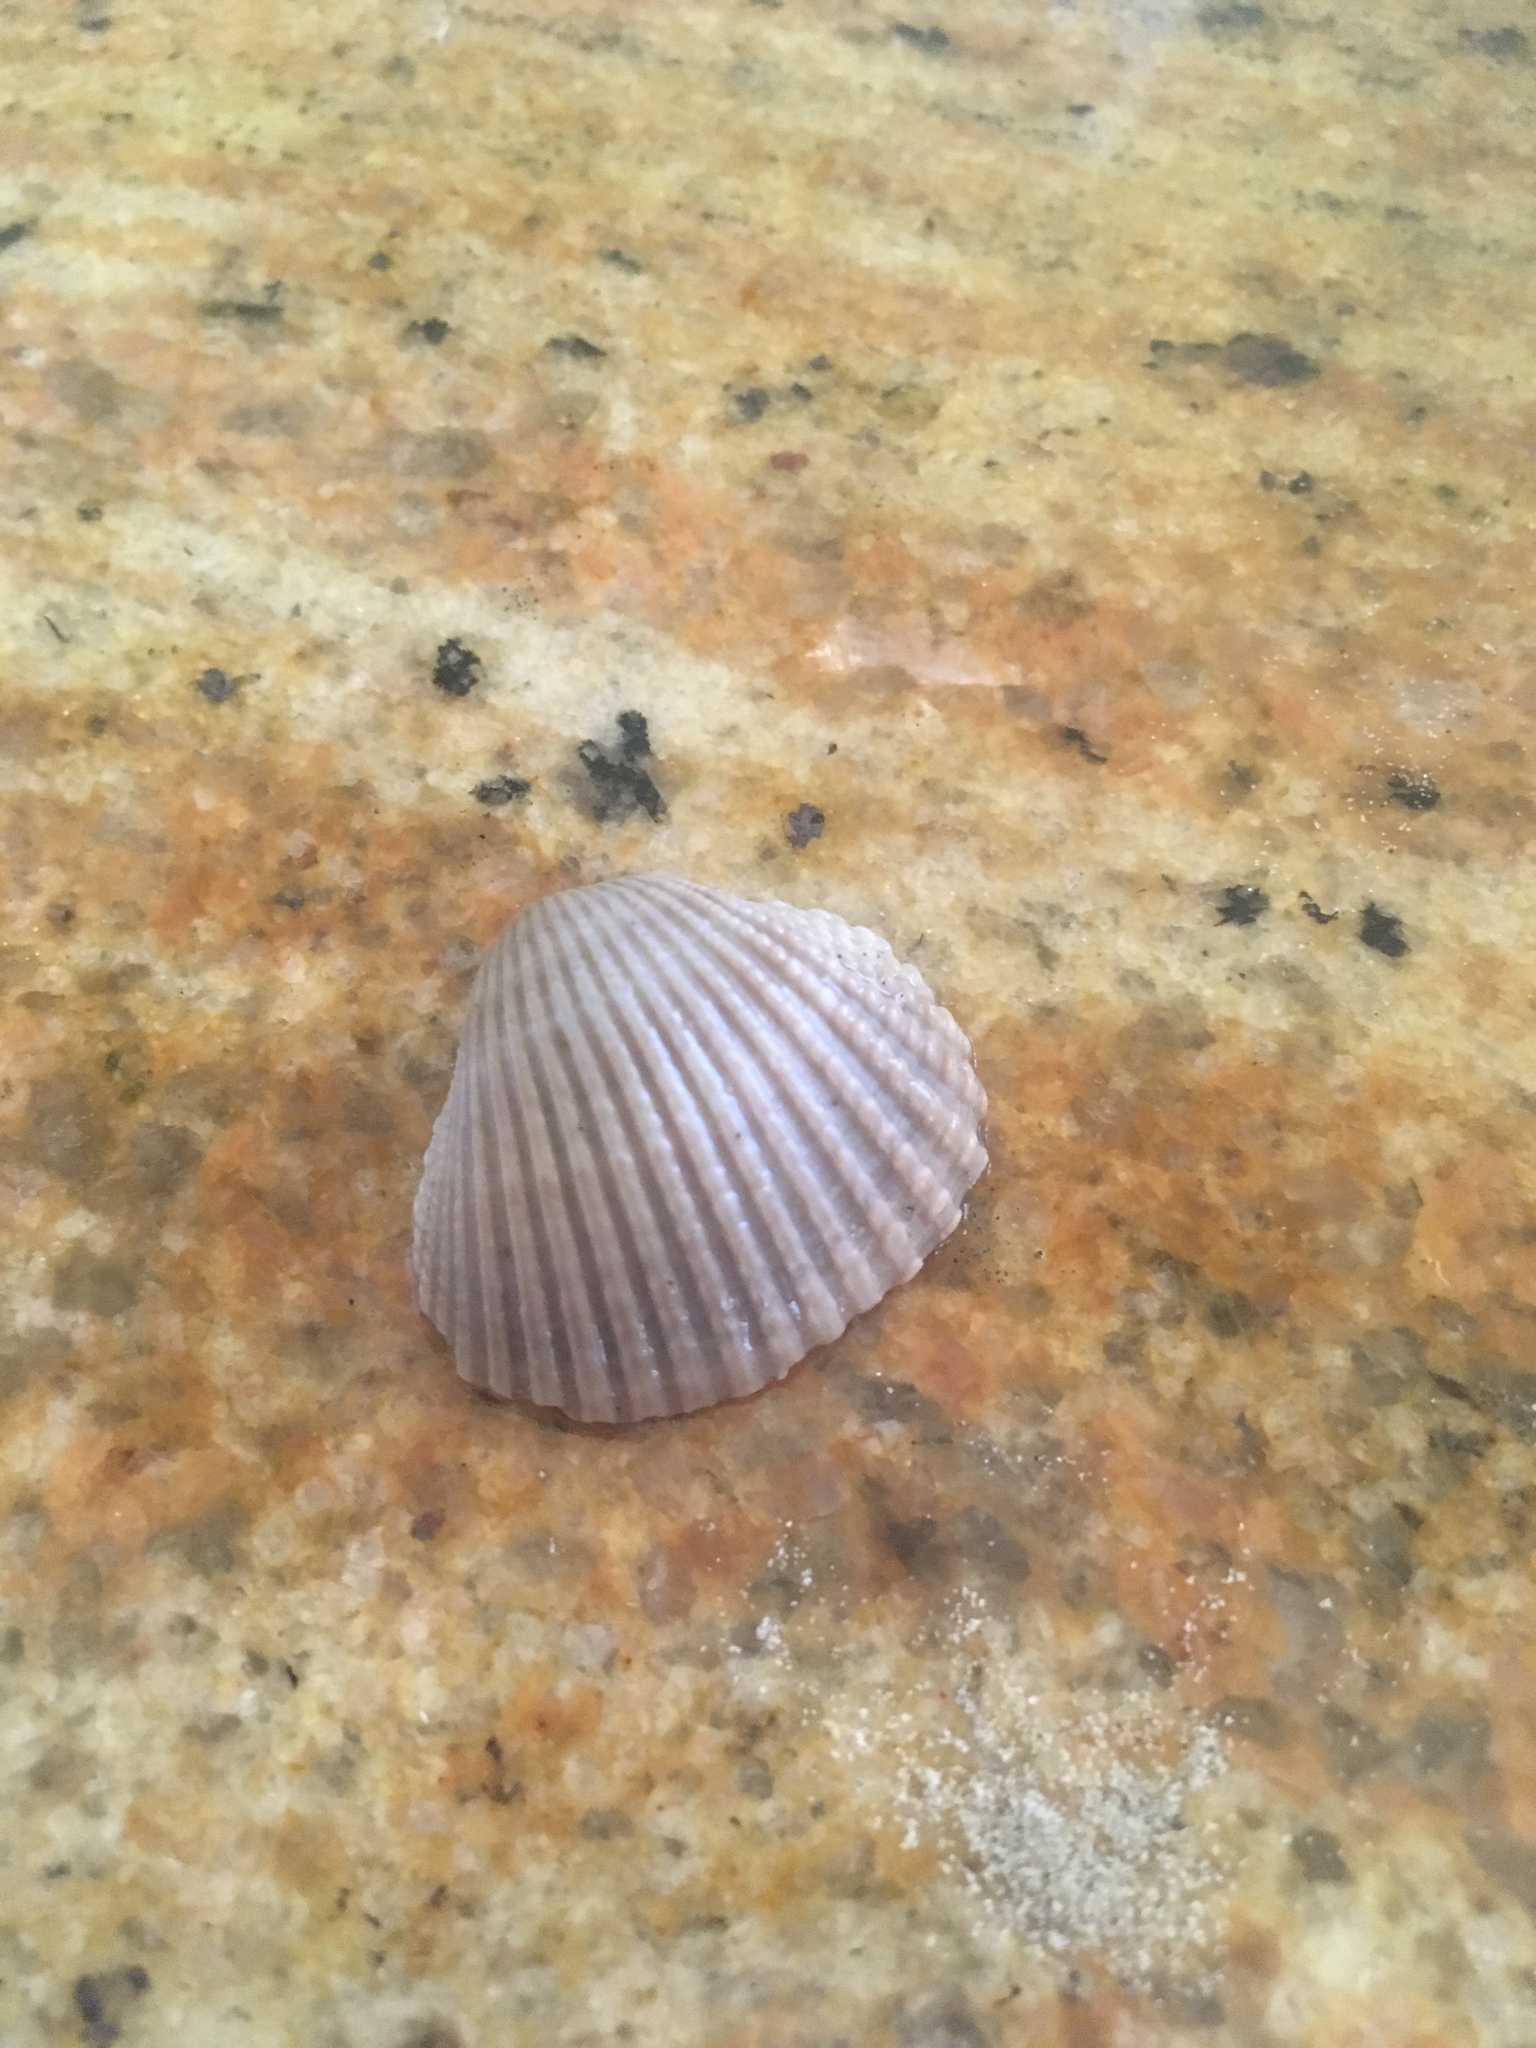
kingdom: Animalia
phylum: Mollusca
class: Bivalvia
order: Arcida
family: Arcidae
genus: Anadara
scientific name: Anadara brasiliana
